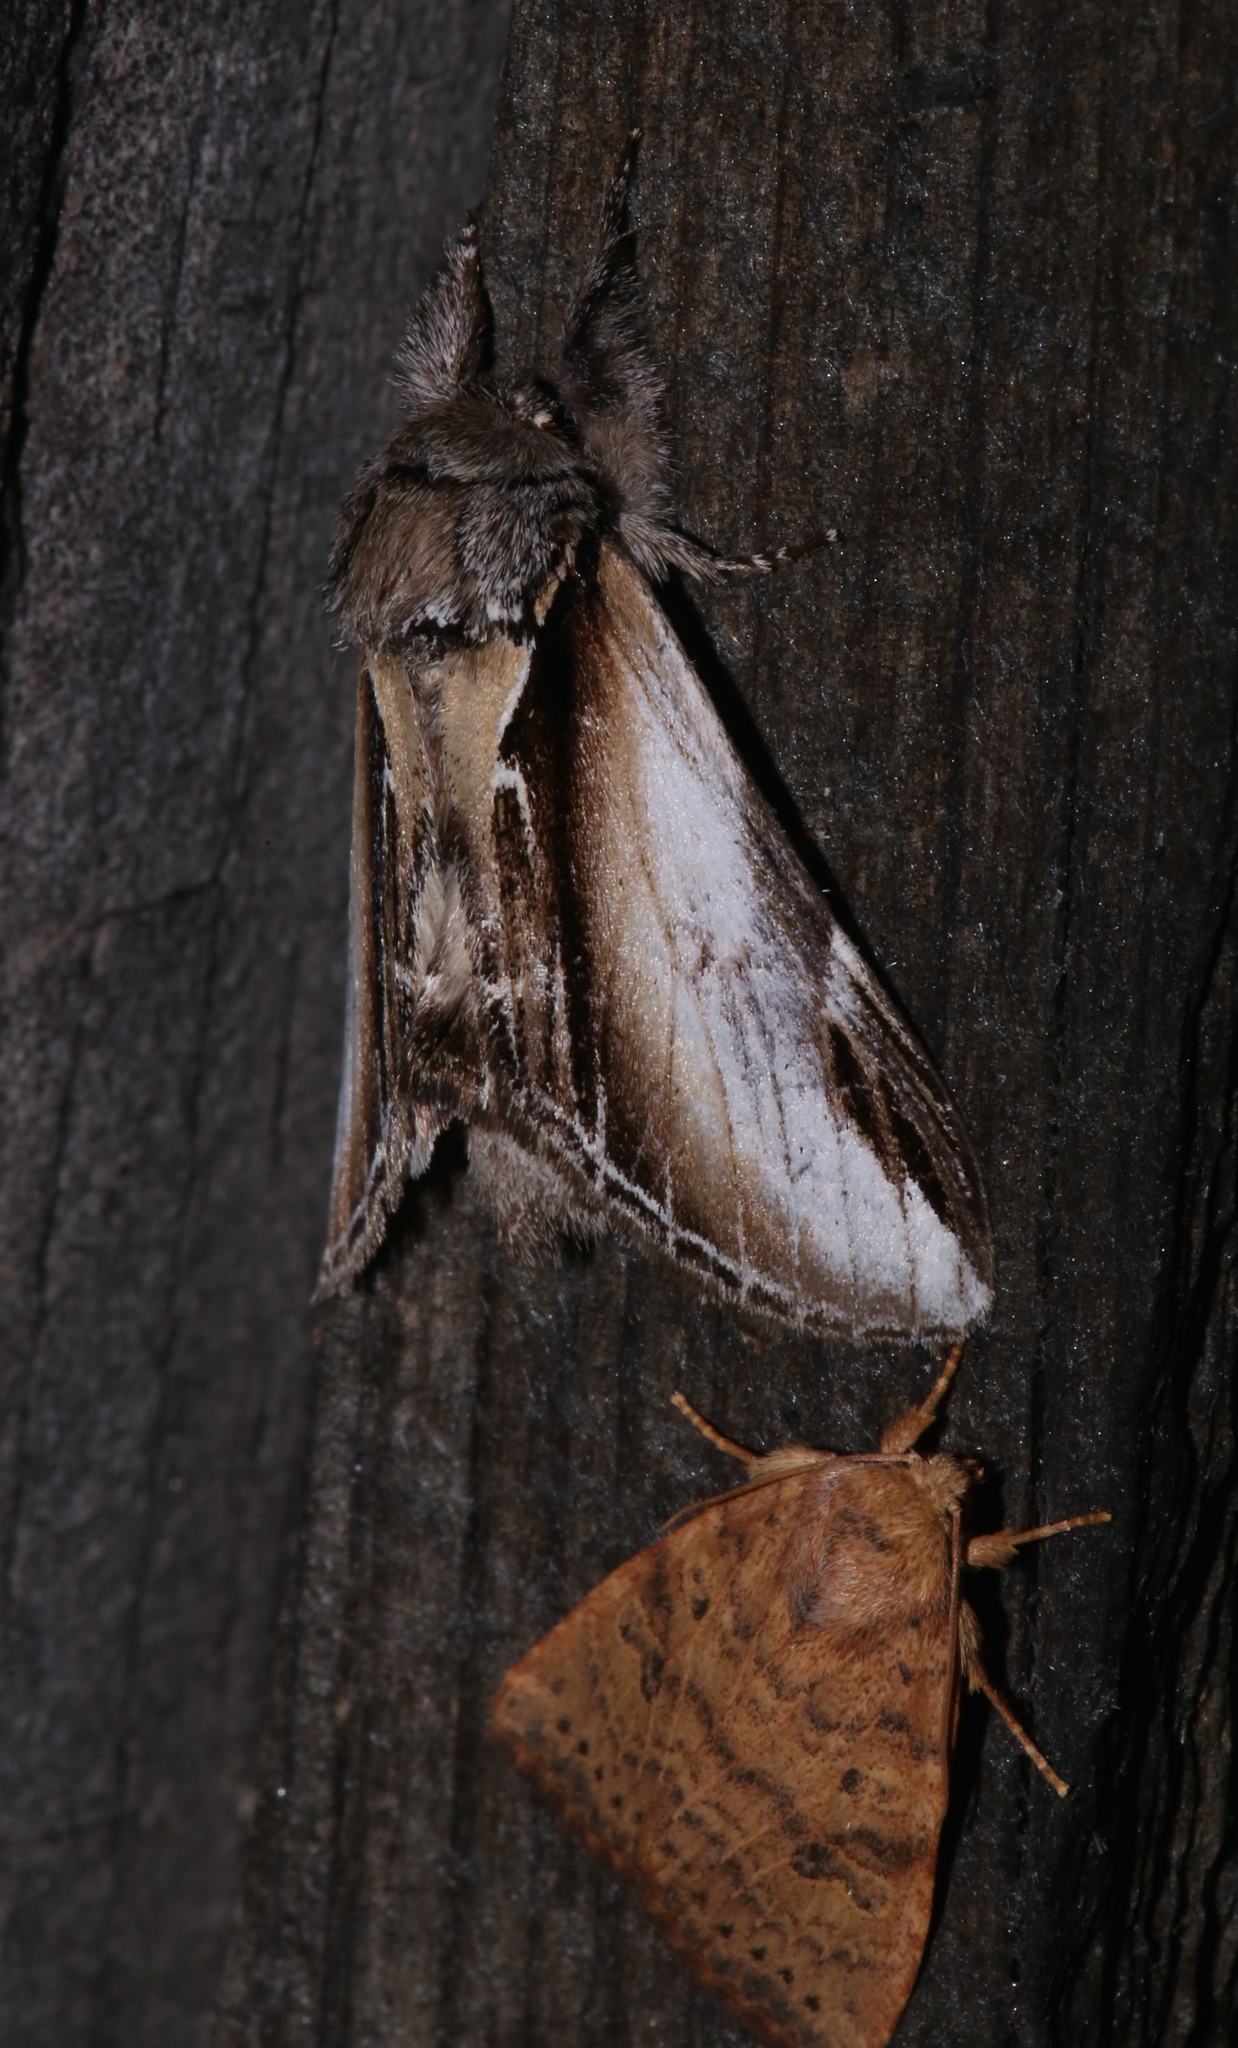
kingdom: Animalia
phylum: Arthropoda
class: Insecta
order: Lepidoptera
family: Notodontidae
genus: Pheosia
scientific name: Pheosia rimosa
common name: Black-rimmed prominent
